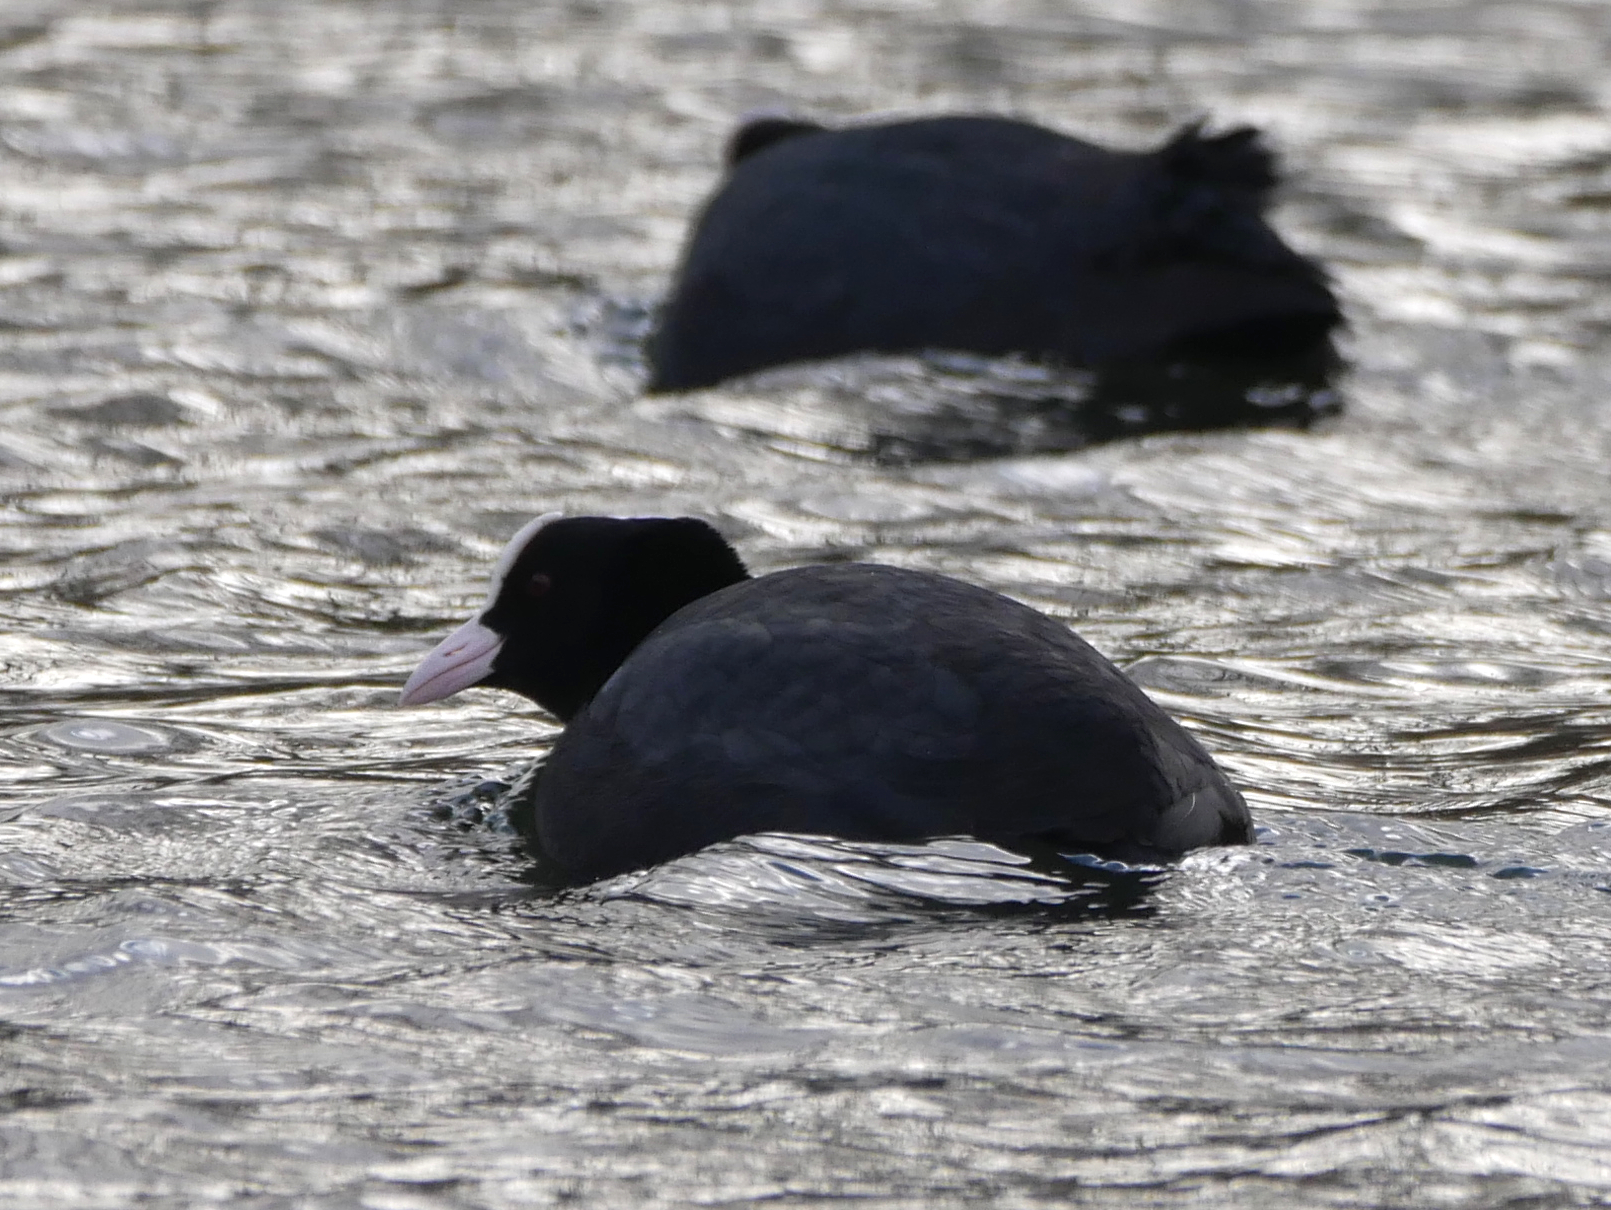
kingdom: Animalia
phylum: Chordata
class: Aves
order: Gruiformes
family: Rallidae
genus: Fulica
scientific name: Fulica atra
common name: Eurasian coot
